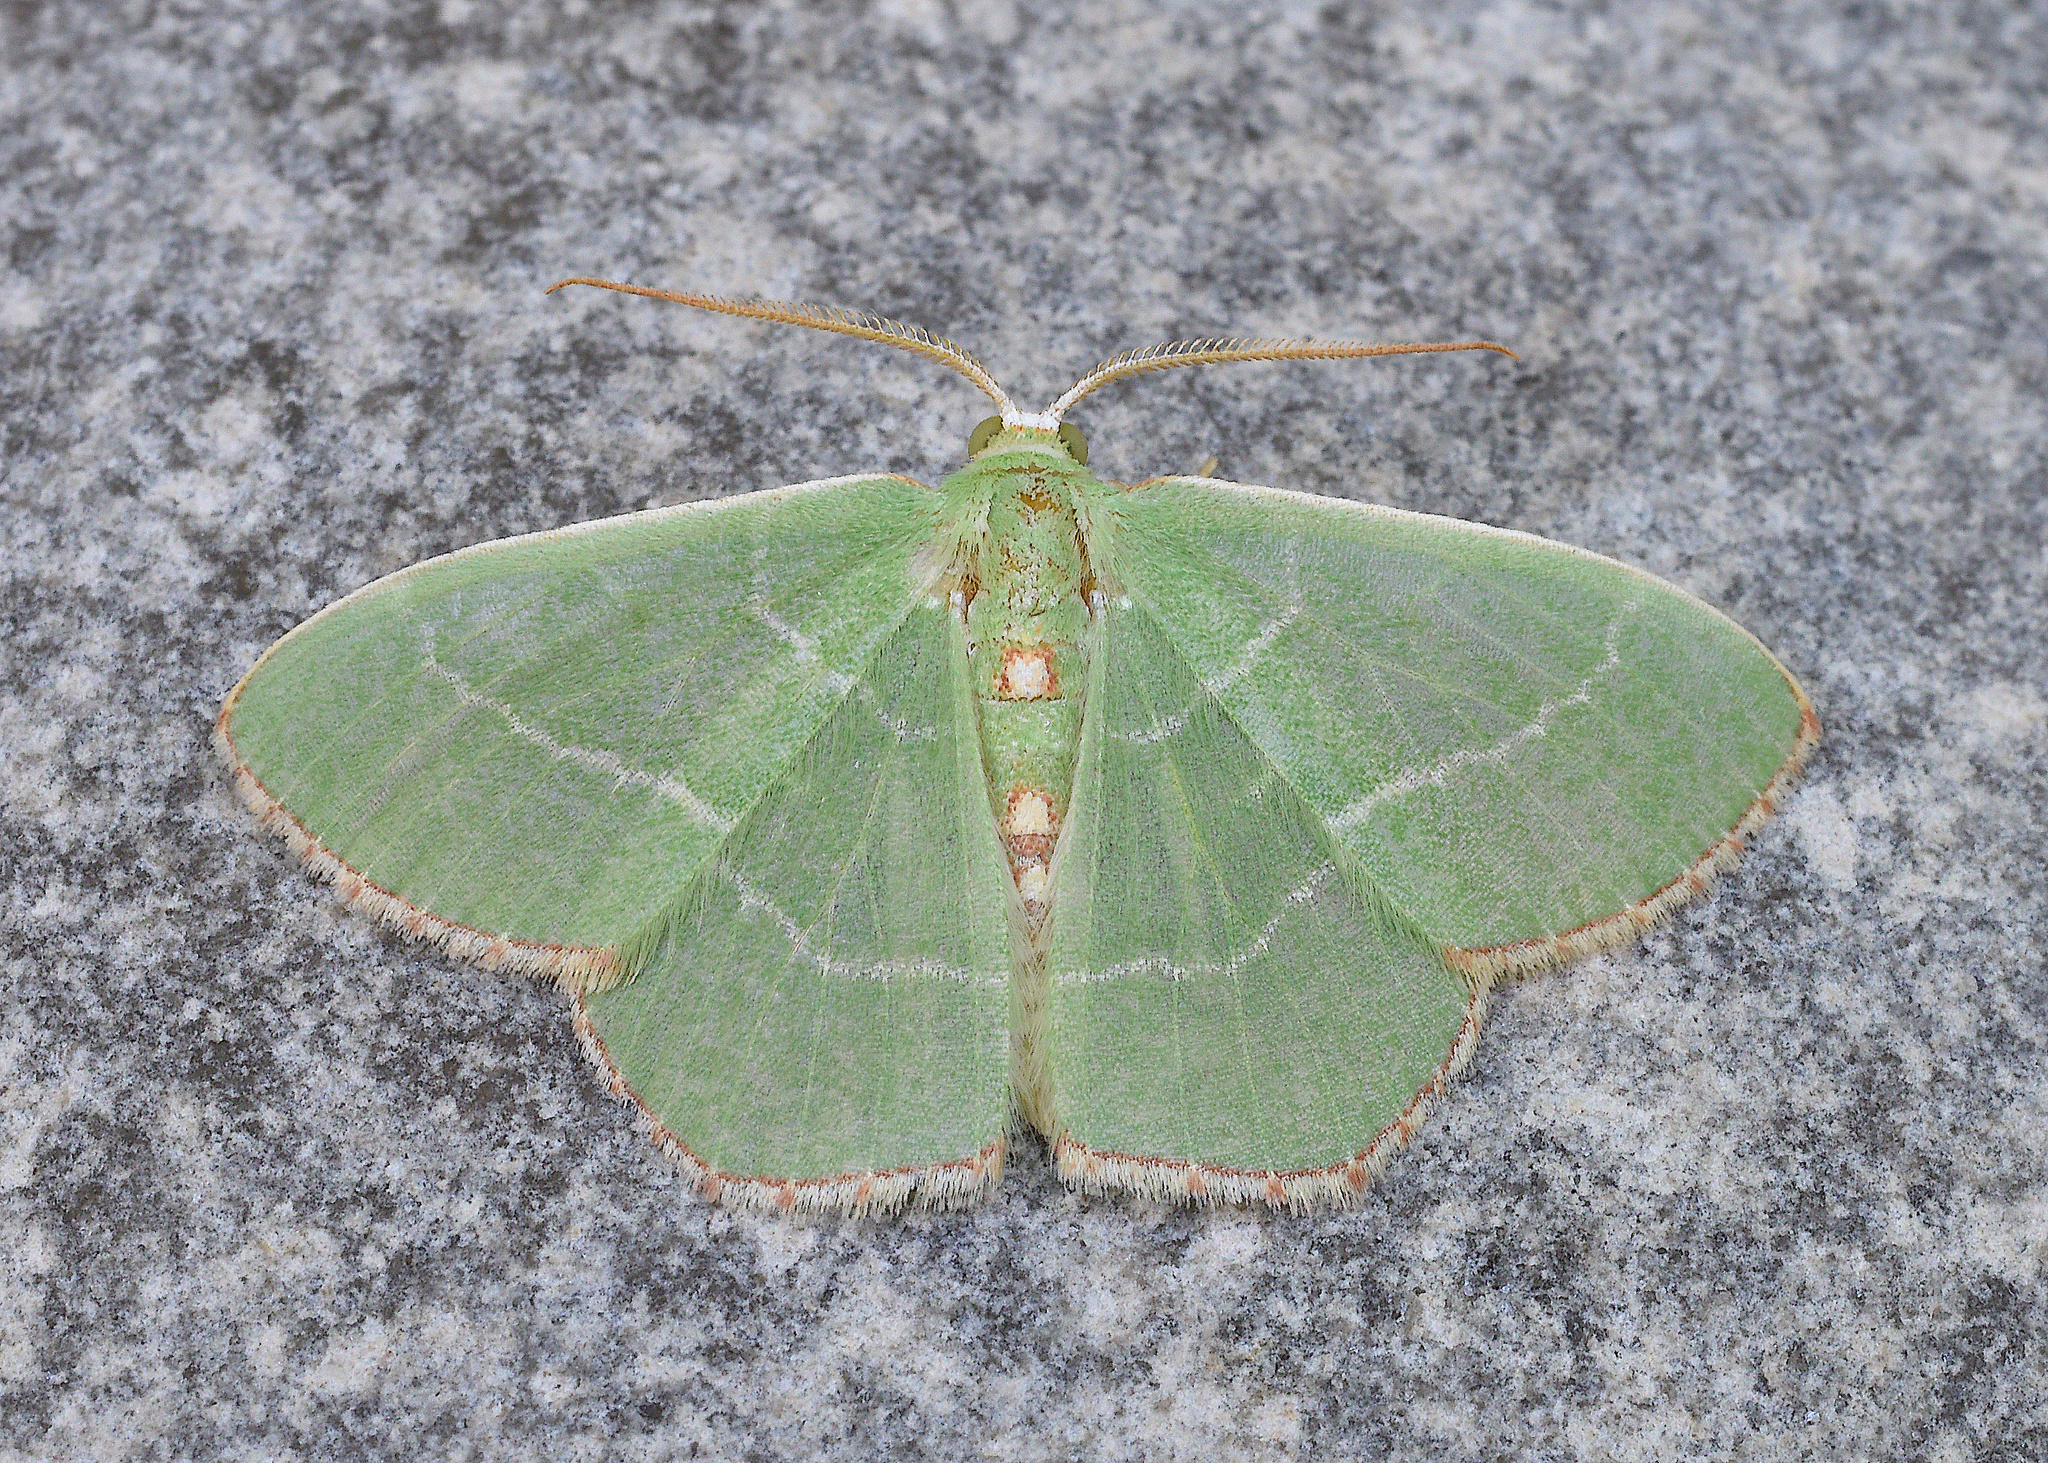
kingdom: Animalia
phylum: Arthropoda
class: Insecta
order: Lepidoptera
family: Geometridae
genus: Nemoria
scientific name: Nemoria bistriaria
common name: Red-fringed emerald
